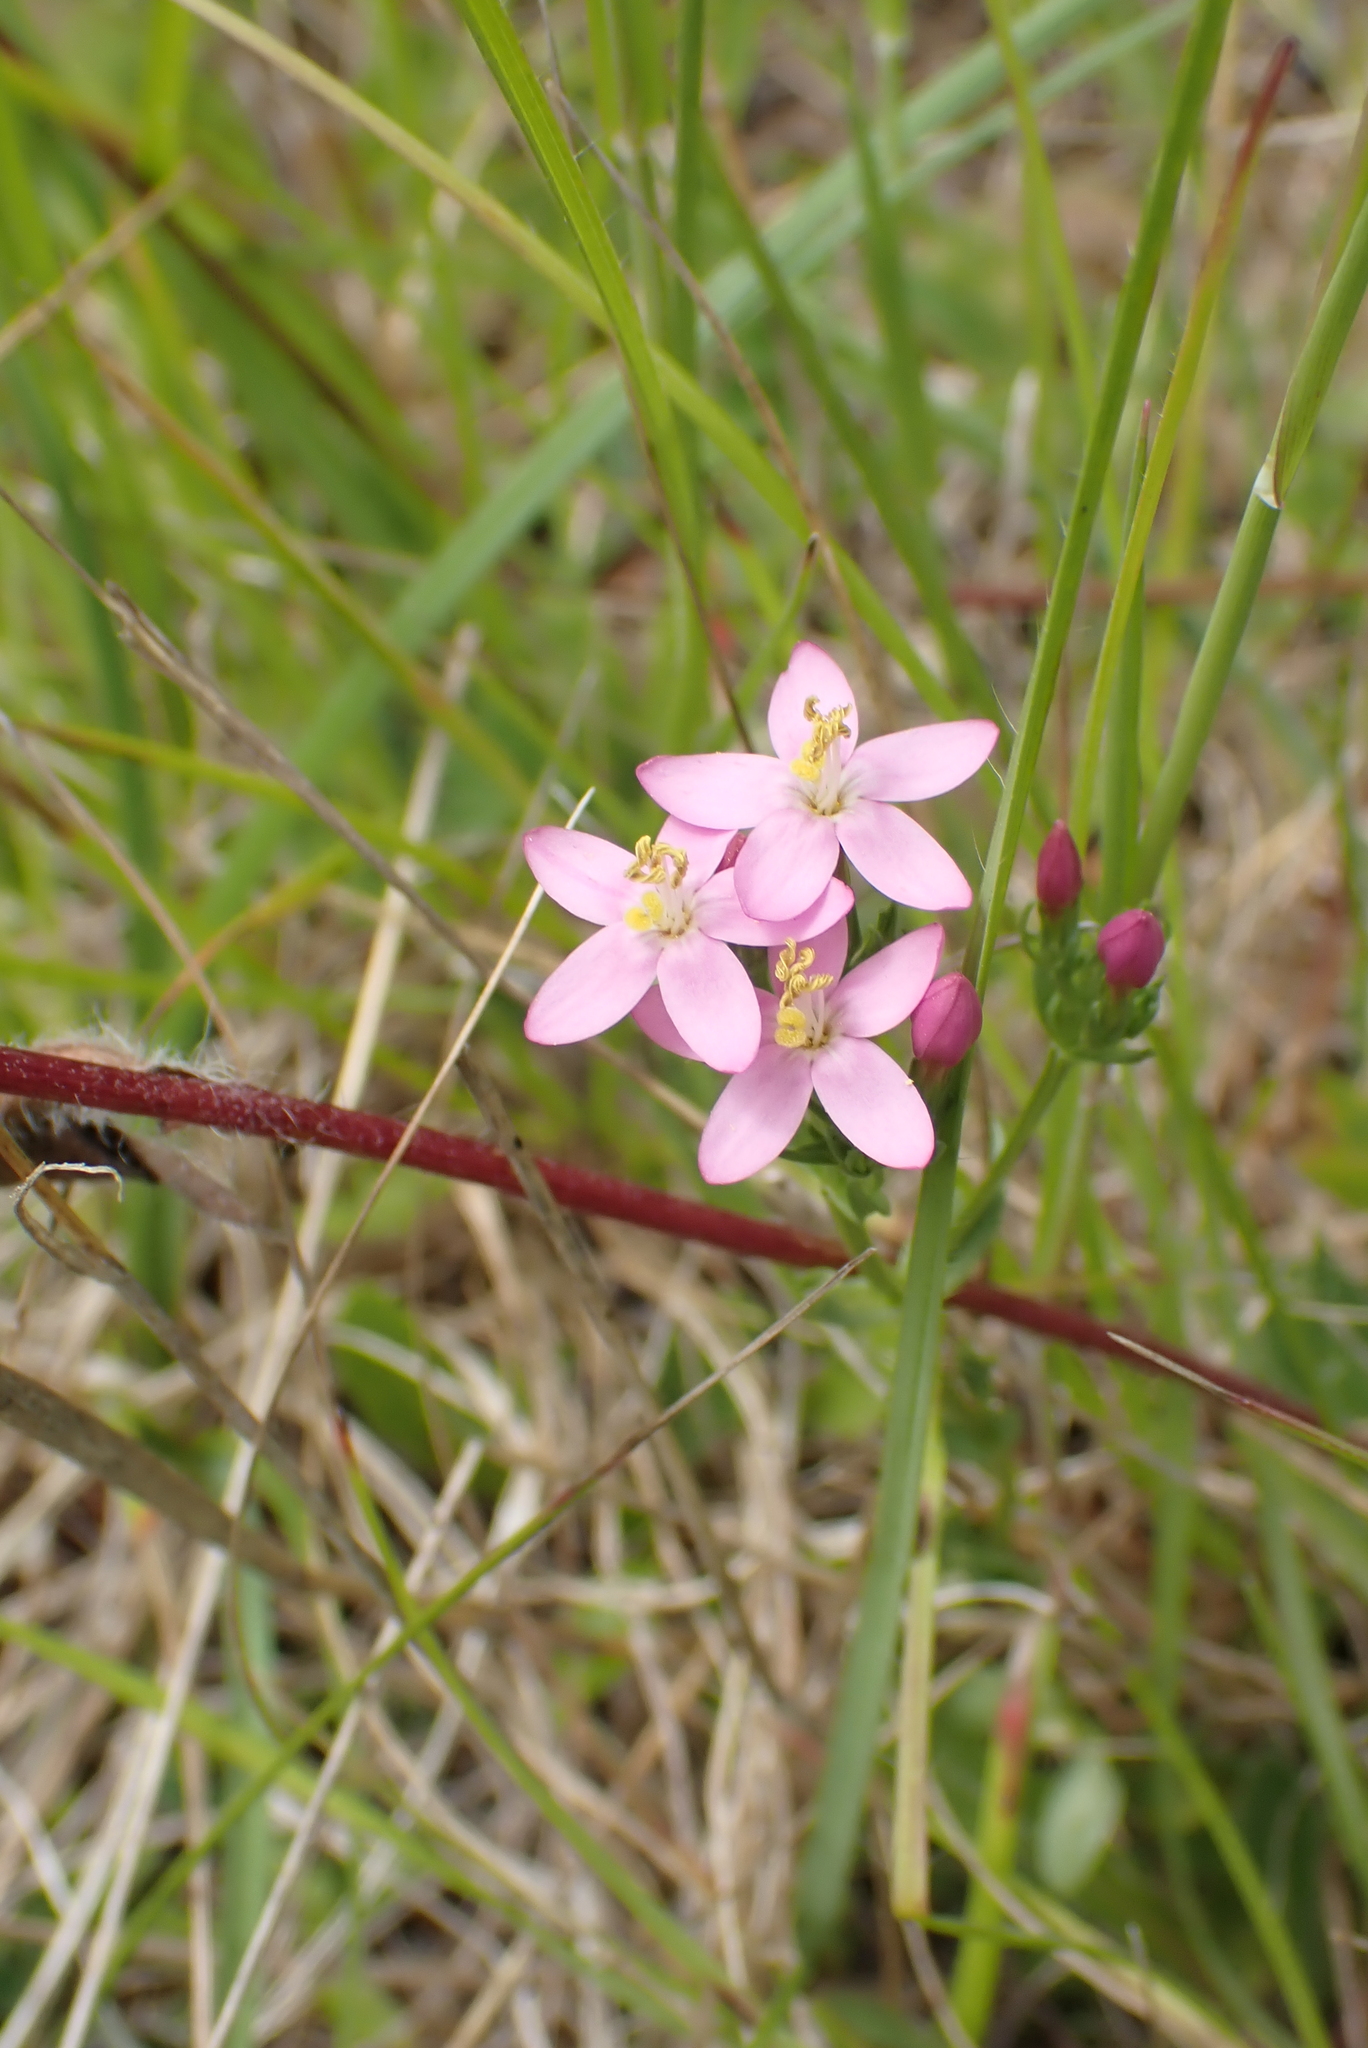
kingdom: Plantae
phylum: Tracheophyta
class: Magnoliopsida
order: Gentianales
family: Gentianaceae
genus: Centaurium
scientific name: Centaurium erythraea
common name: Common centaury
